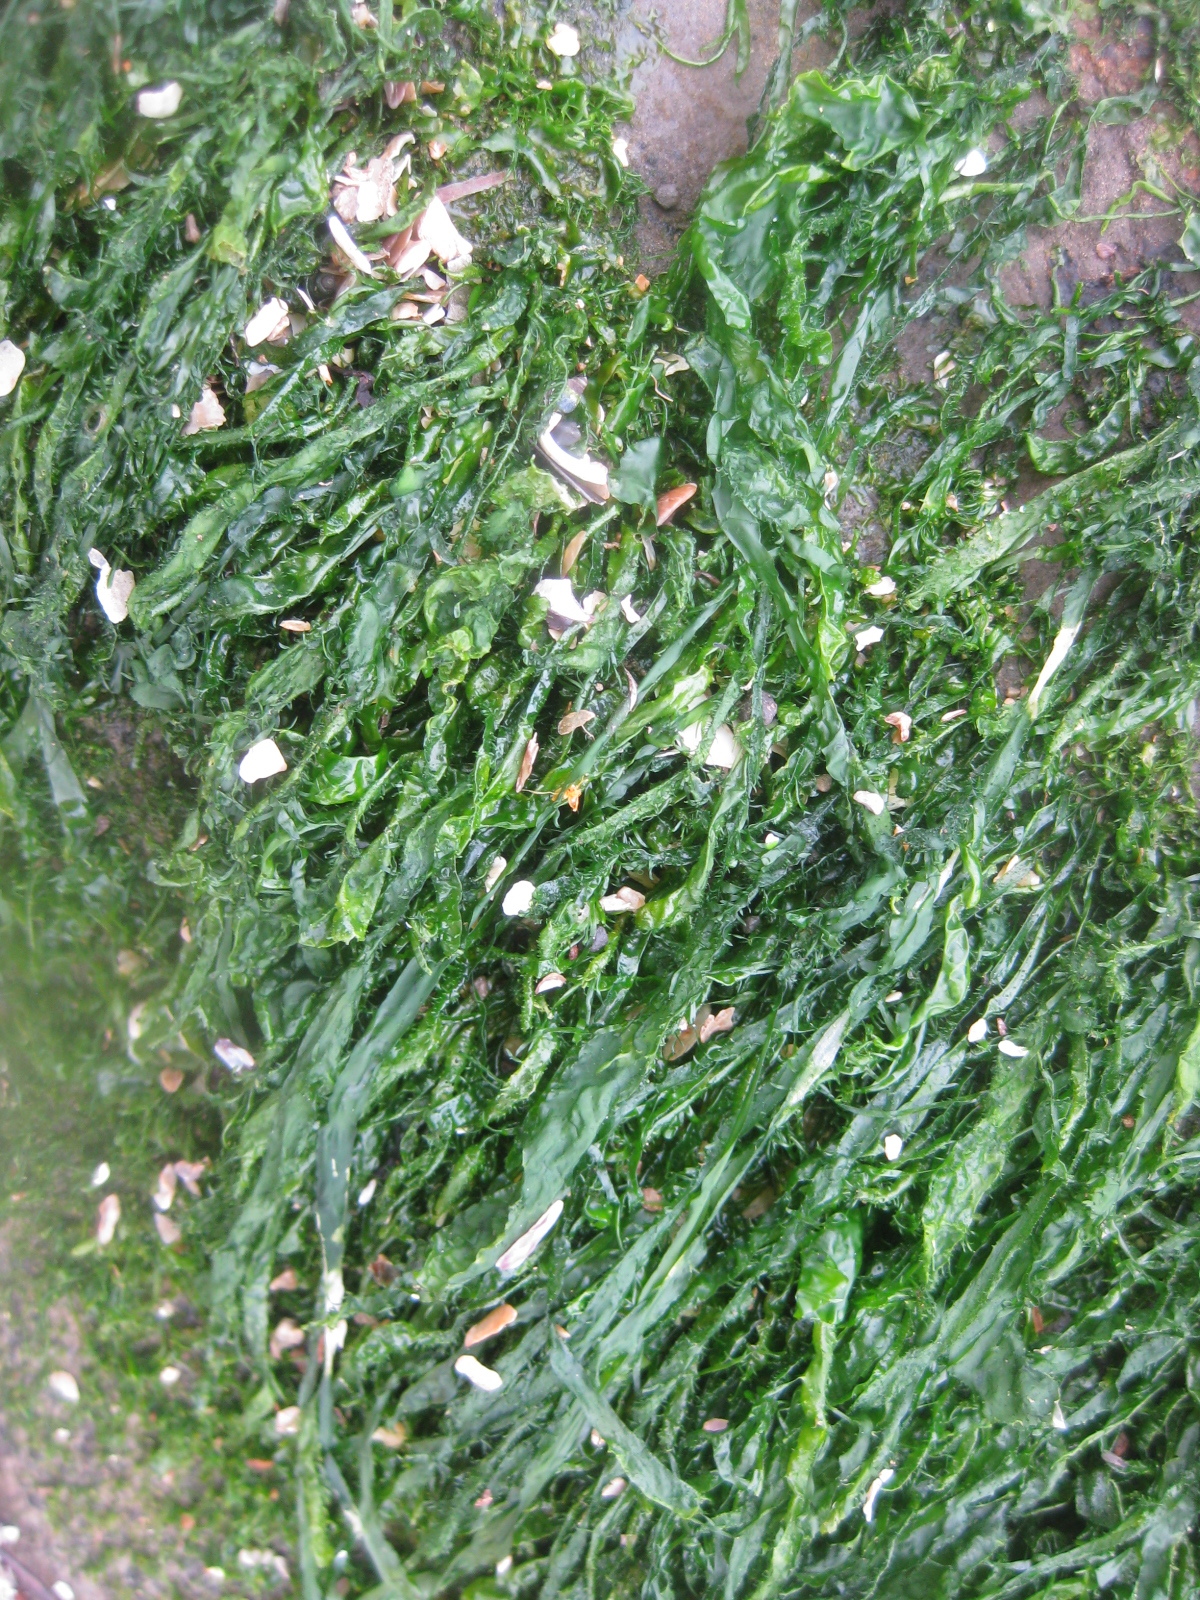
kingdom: Plantae
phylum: Chlorophyta
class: Ulvophyceae
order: Ulvales
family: Ulvaceae
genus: Ulva
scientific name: Ulva compressa
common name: Thread weed
